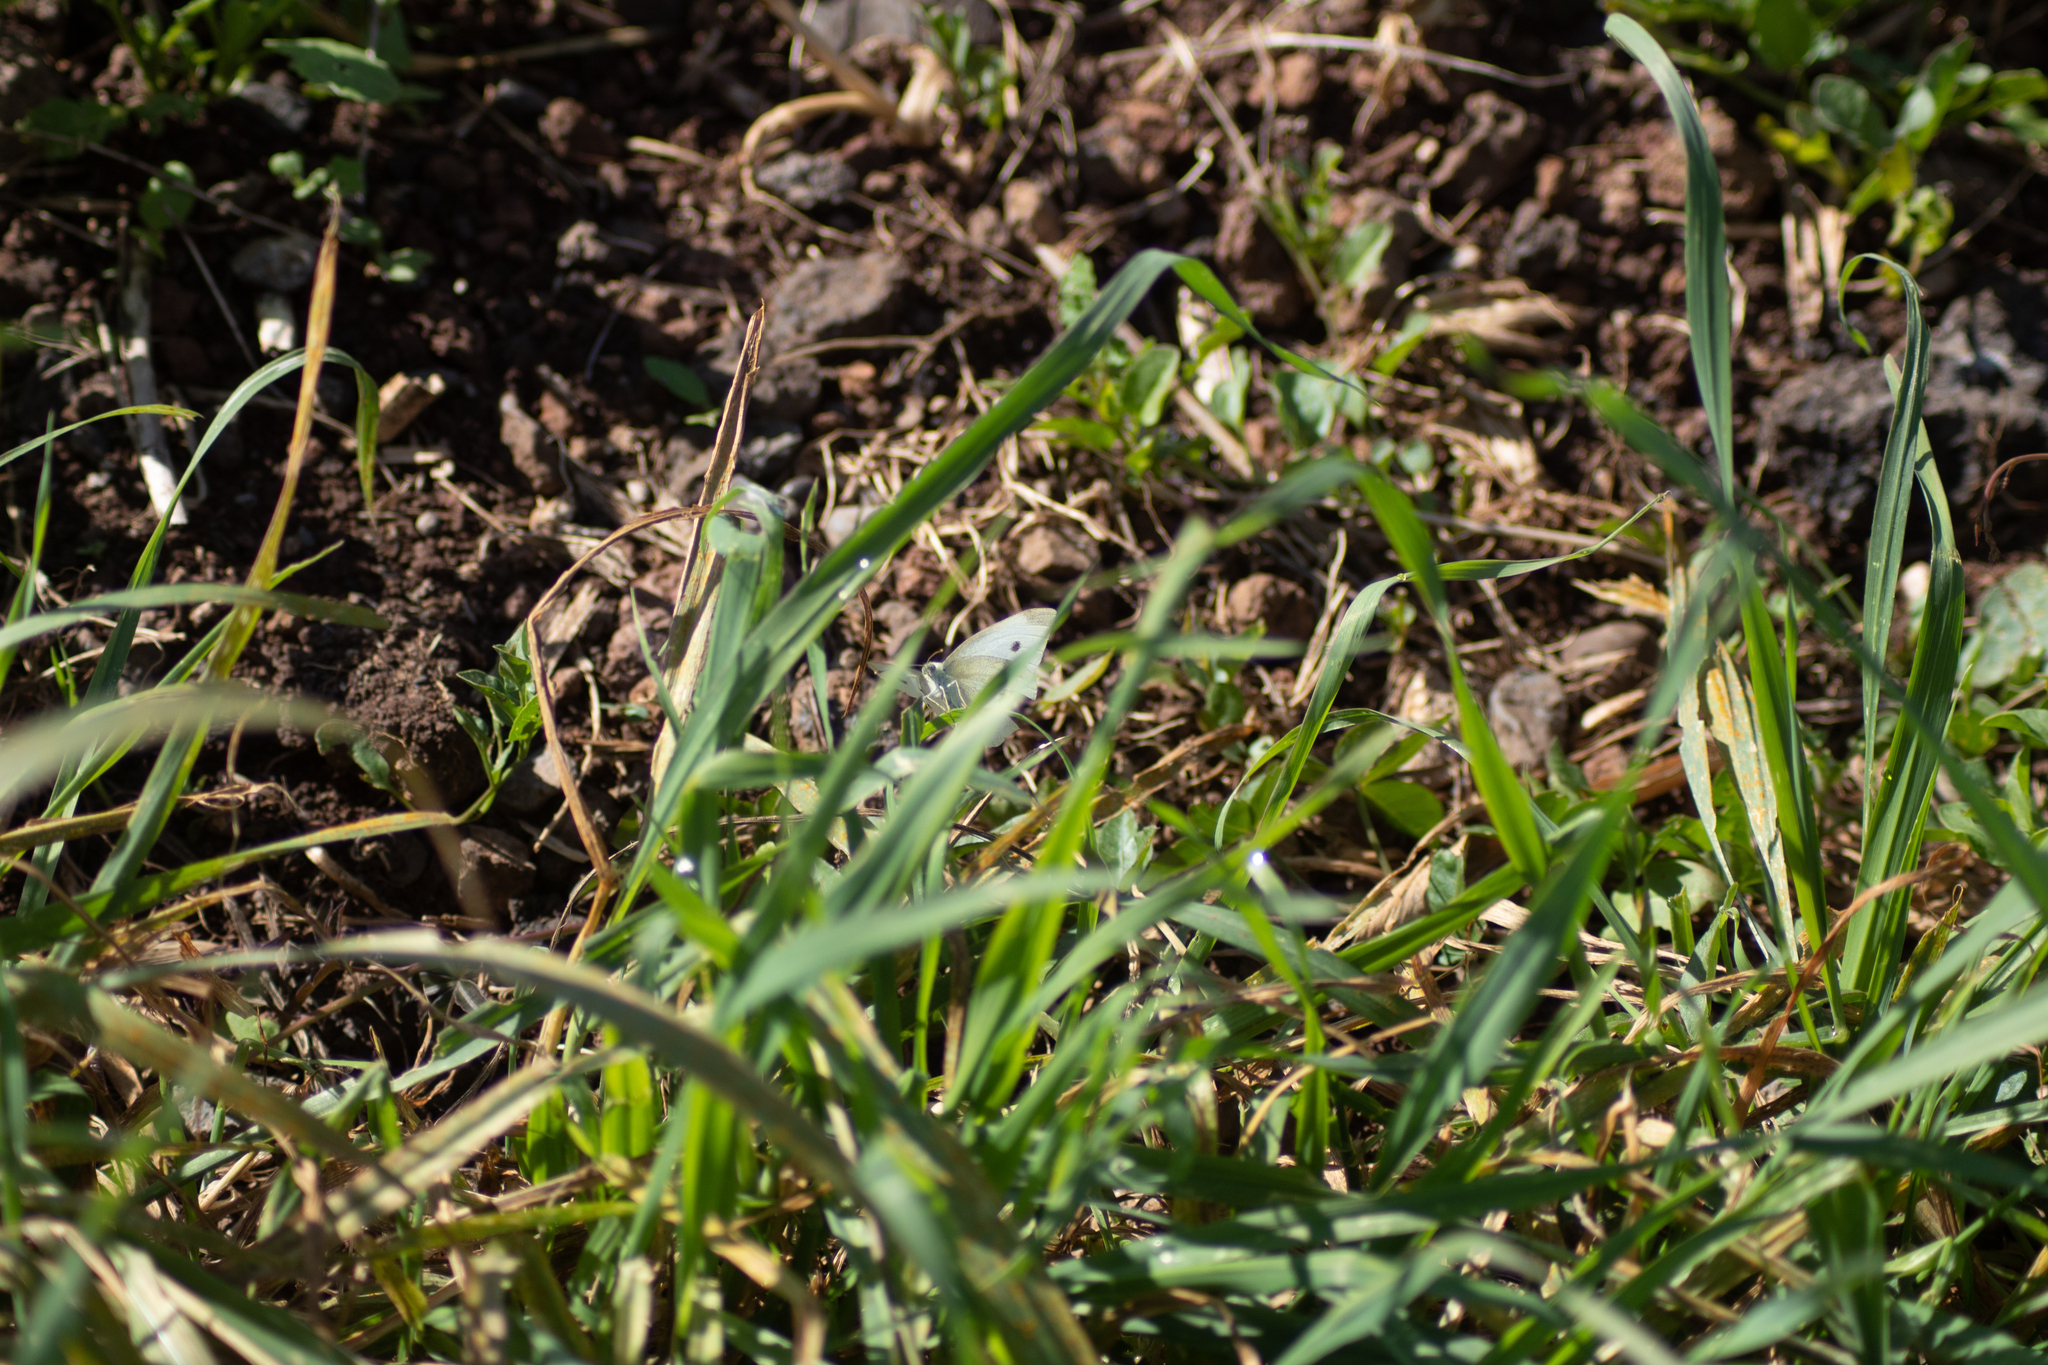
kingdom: Animalia
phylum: Arthropoda
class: Insecta
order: Lepidoptera
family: Pieridae
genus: Pieris
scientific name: Pieris rapae
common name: Small white
